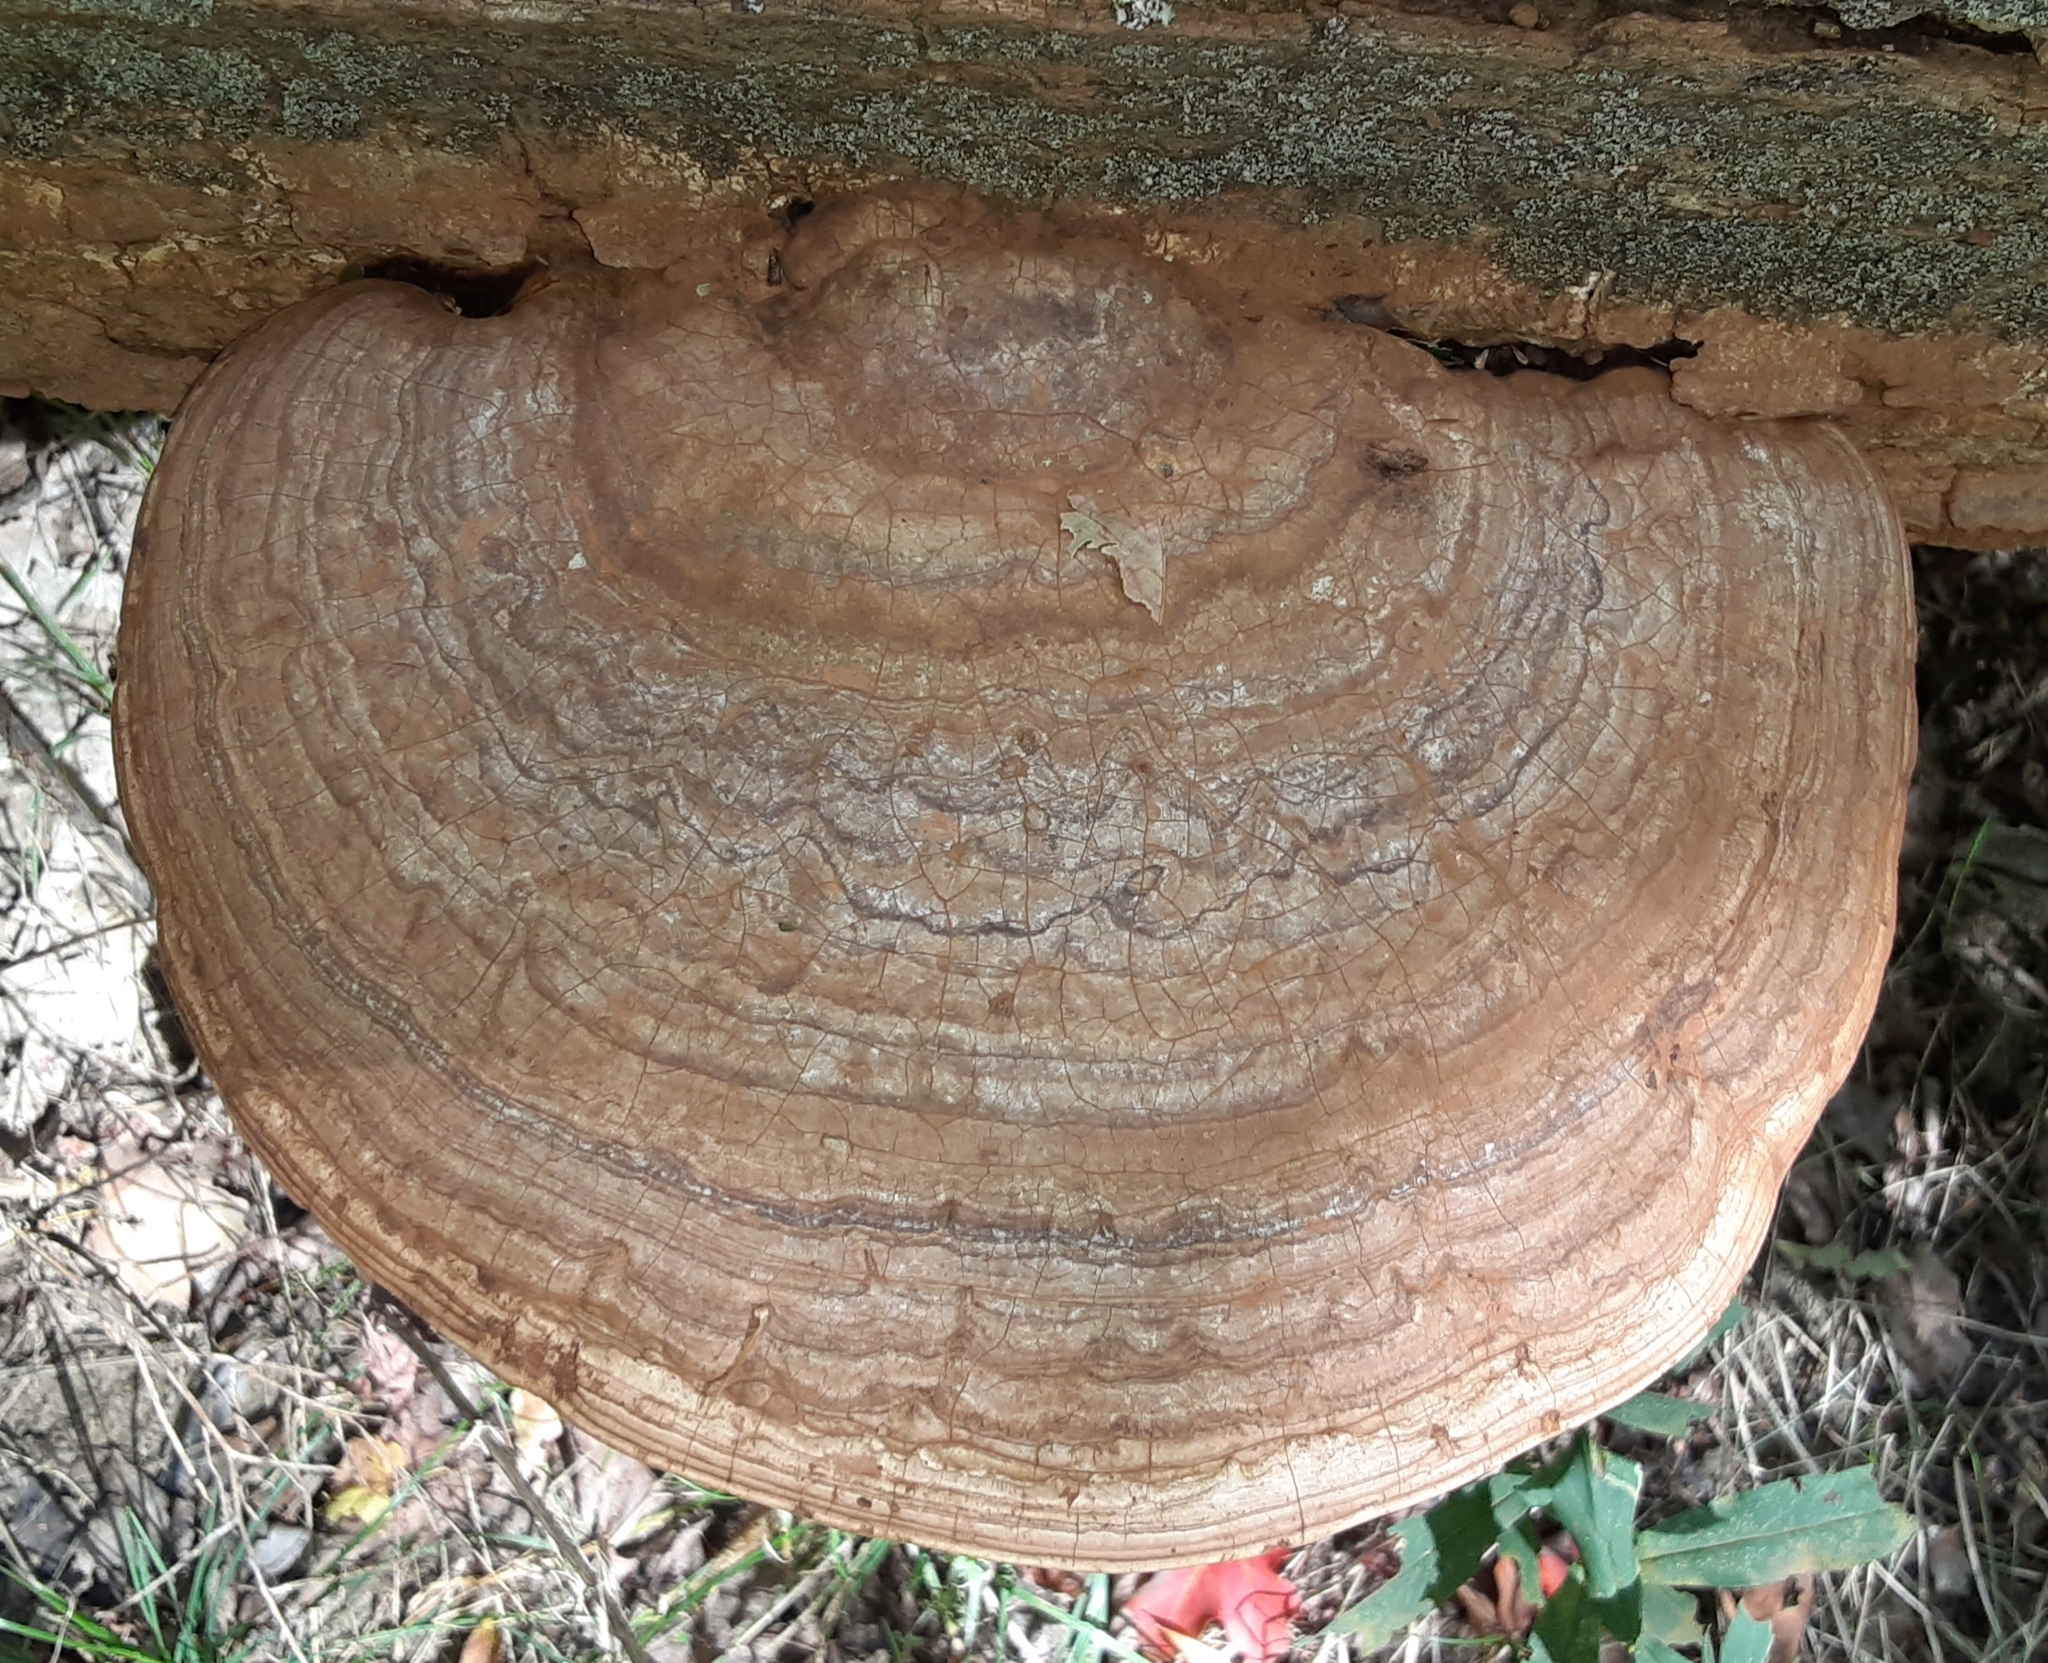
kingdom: Fungi
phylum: Basidiomycota
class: Agaricomycetes
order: Polyporales
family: Polyporaceae
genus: Ganoderma
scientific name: Ganoderma applanatum
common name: Artist's bracket
